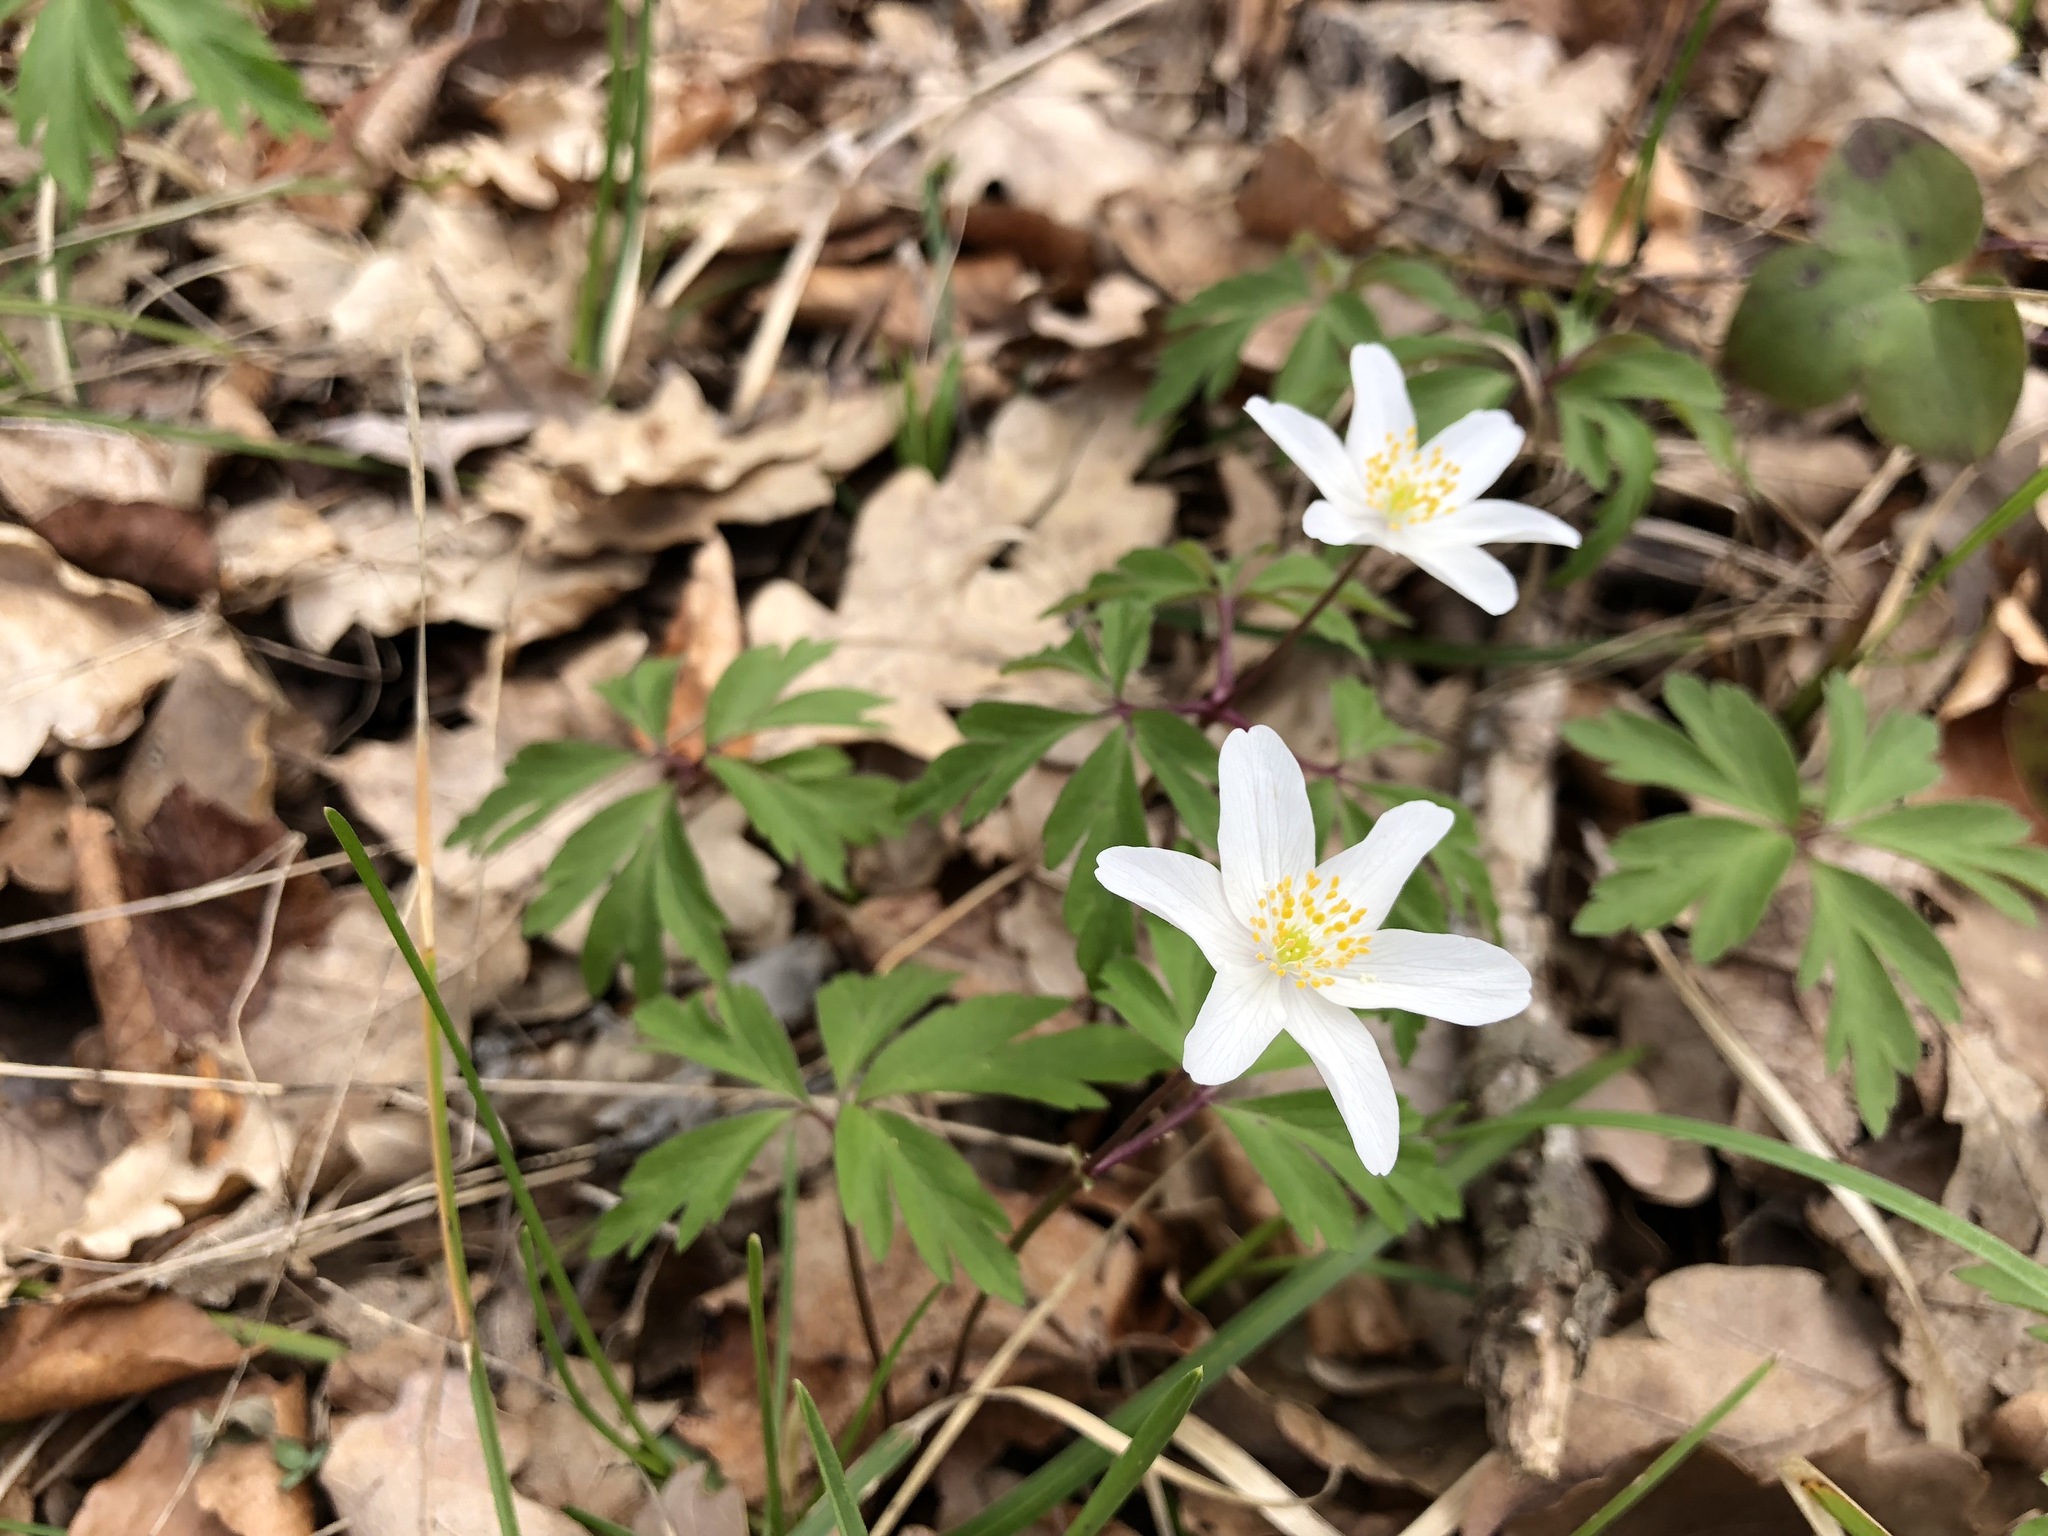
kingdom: Plantae
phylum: Tracheophyta
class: Magnoliopsida
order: Ranunculales
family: Ranunculaceae
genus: Anemone
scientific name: Anemone nemorosa
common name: Wood anemone
